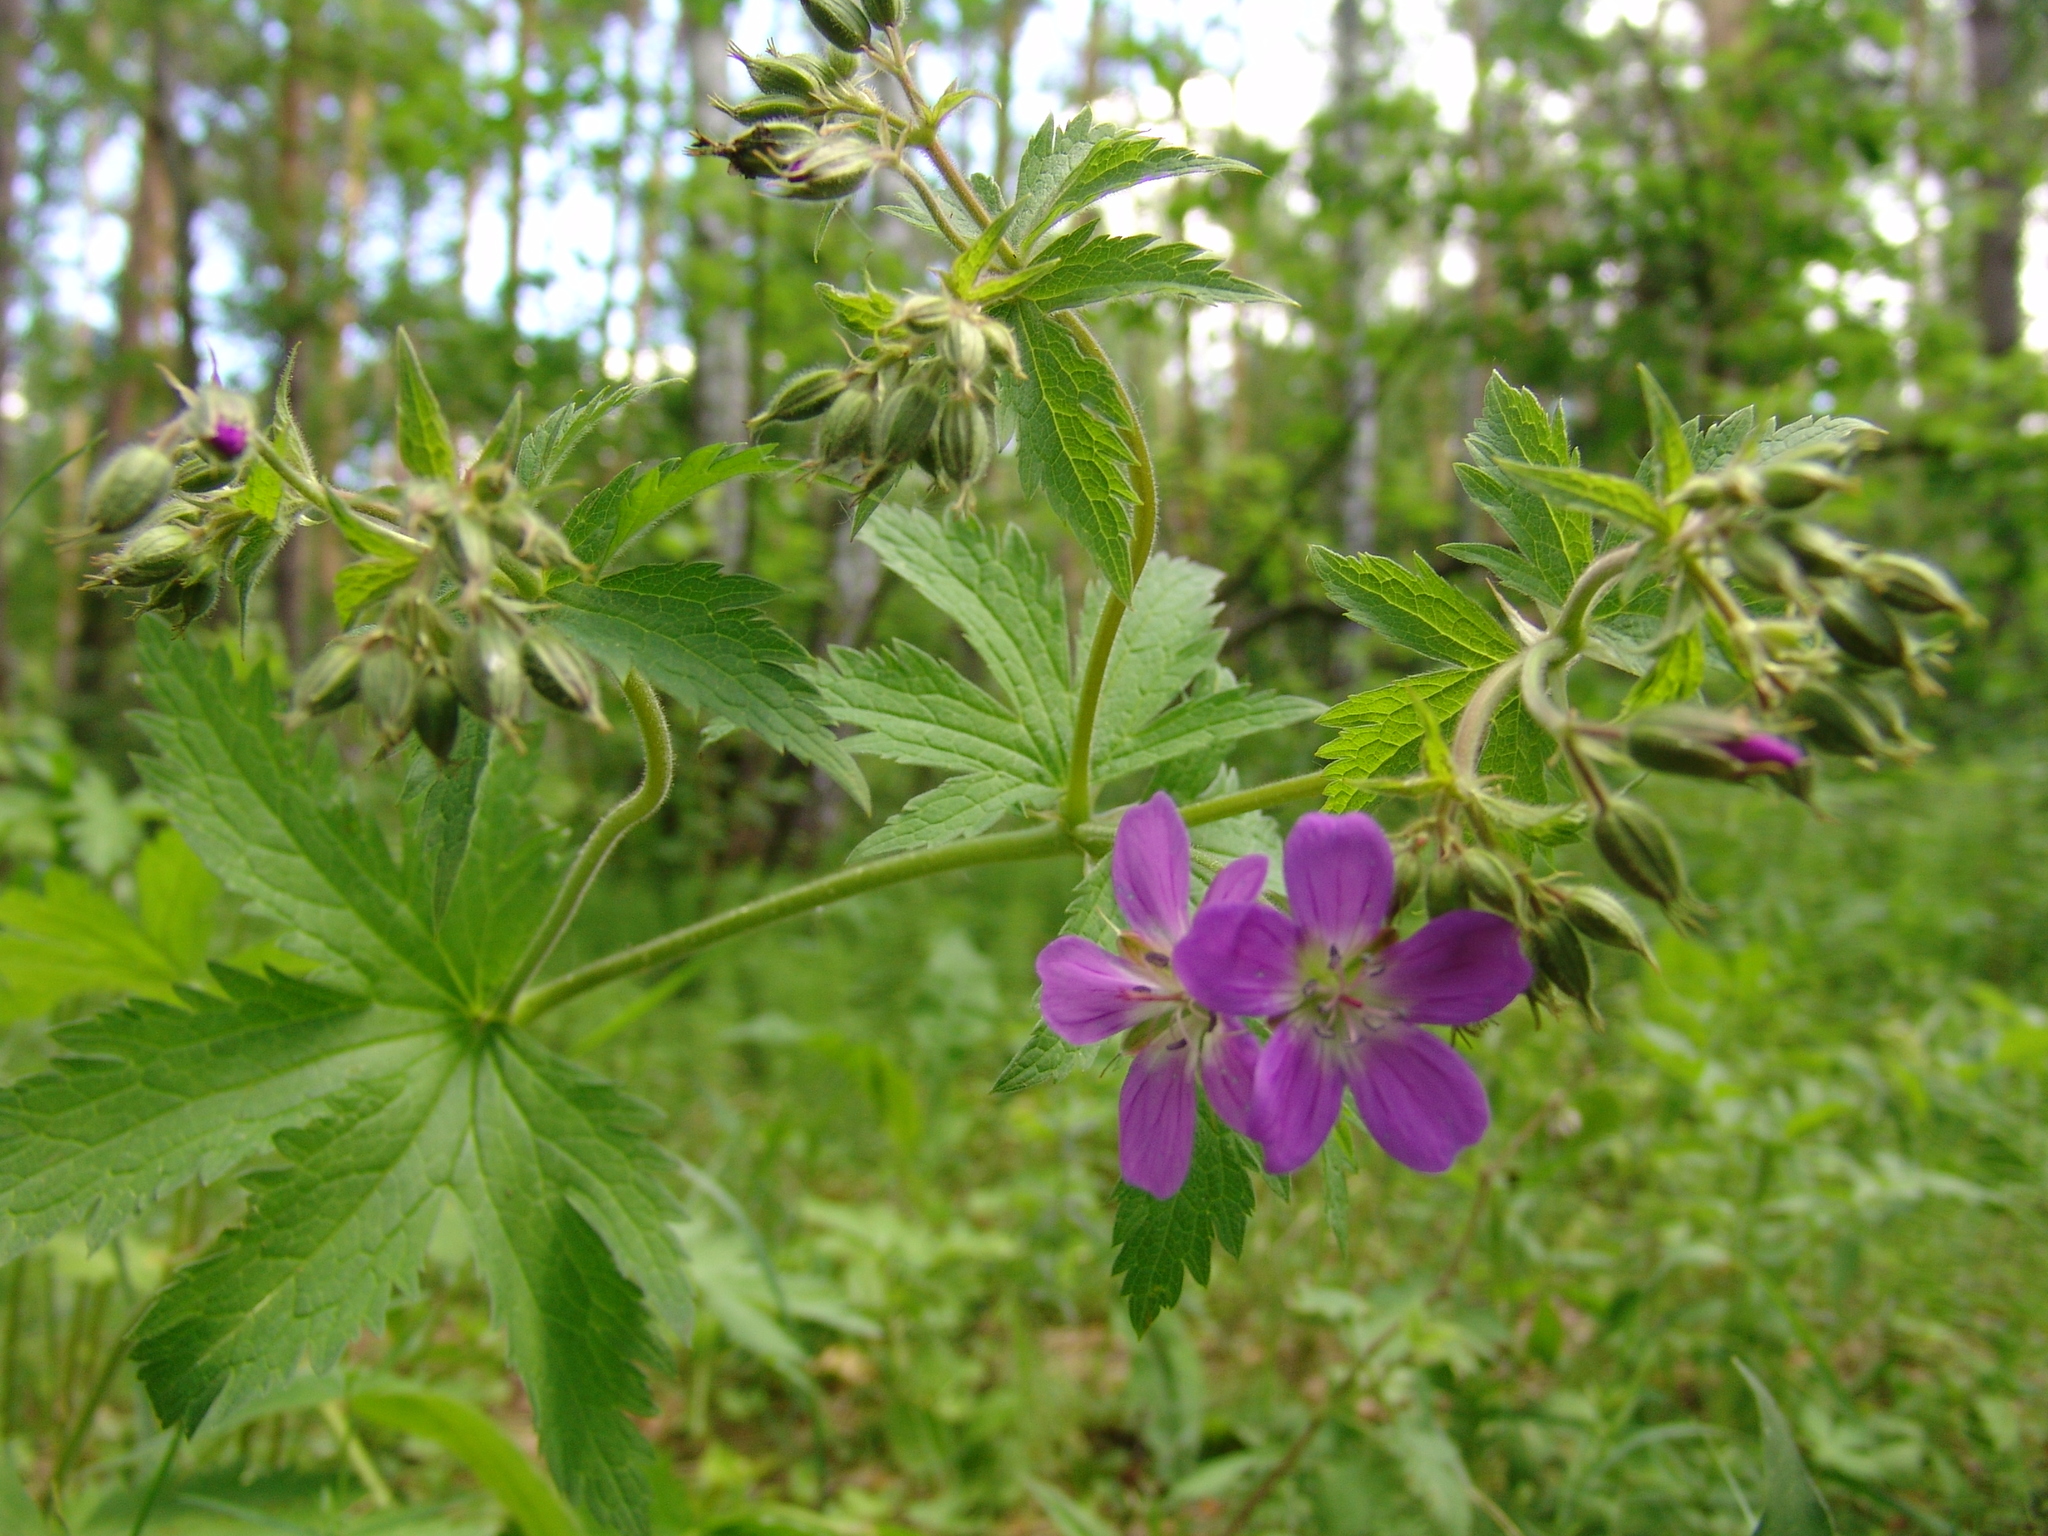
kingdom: Plantae
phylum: Tracheophyta
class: Magnoliopsida
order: Geraniales
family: Geraniaceae
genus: Geranium
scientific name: Geranium sylvaticum
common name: Wood crane's-bill
